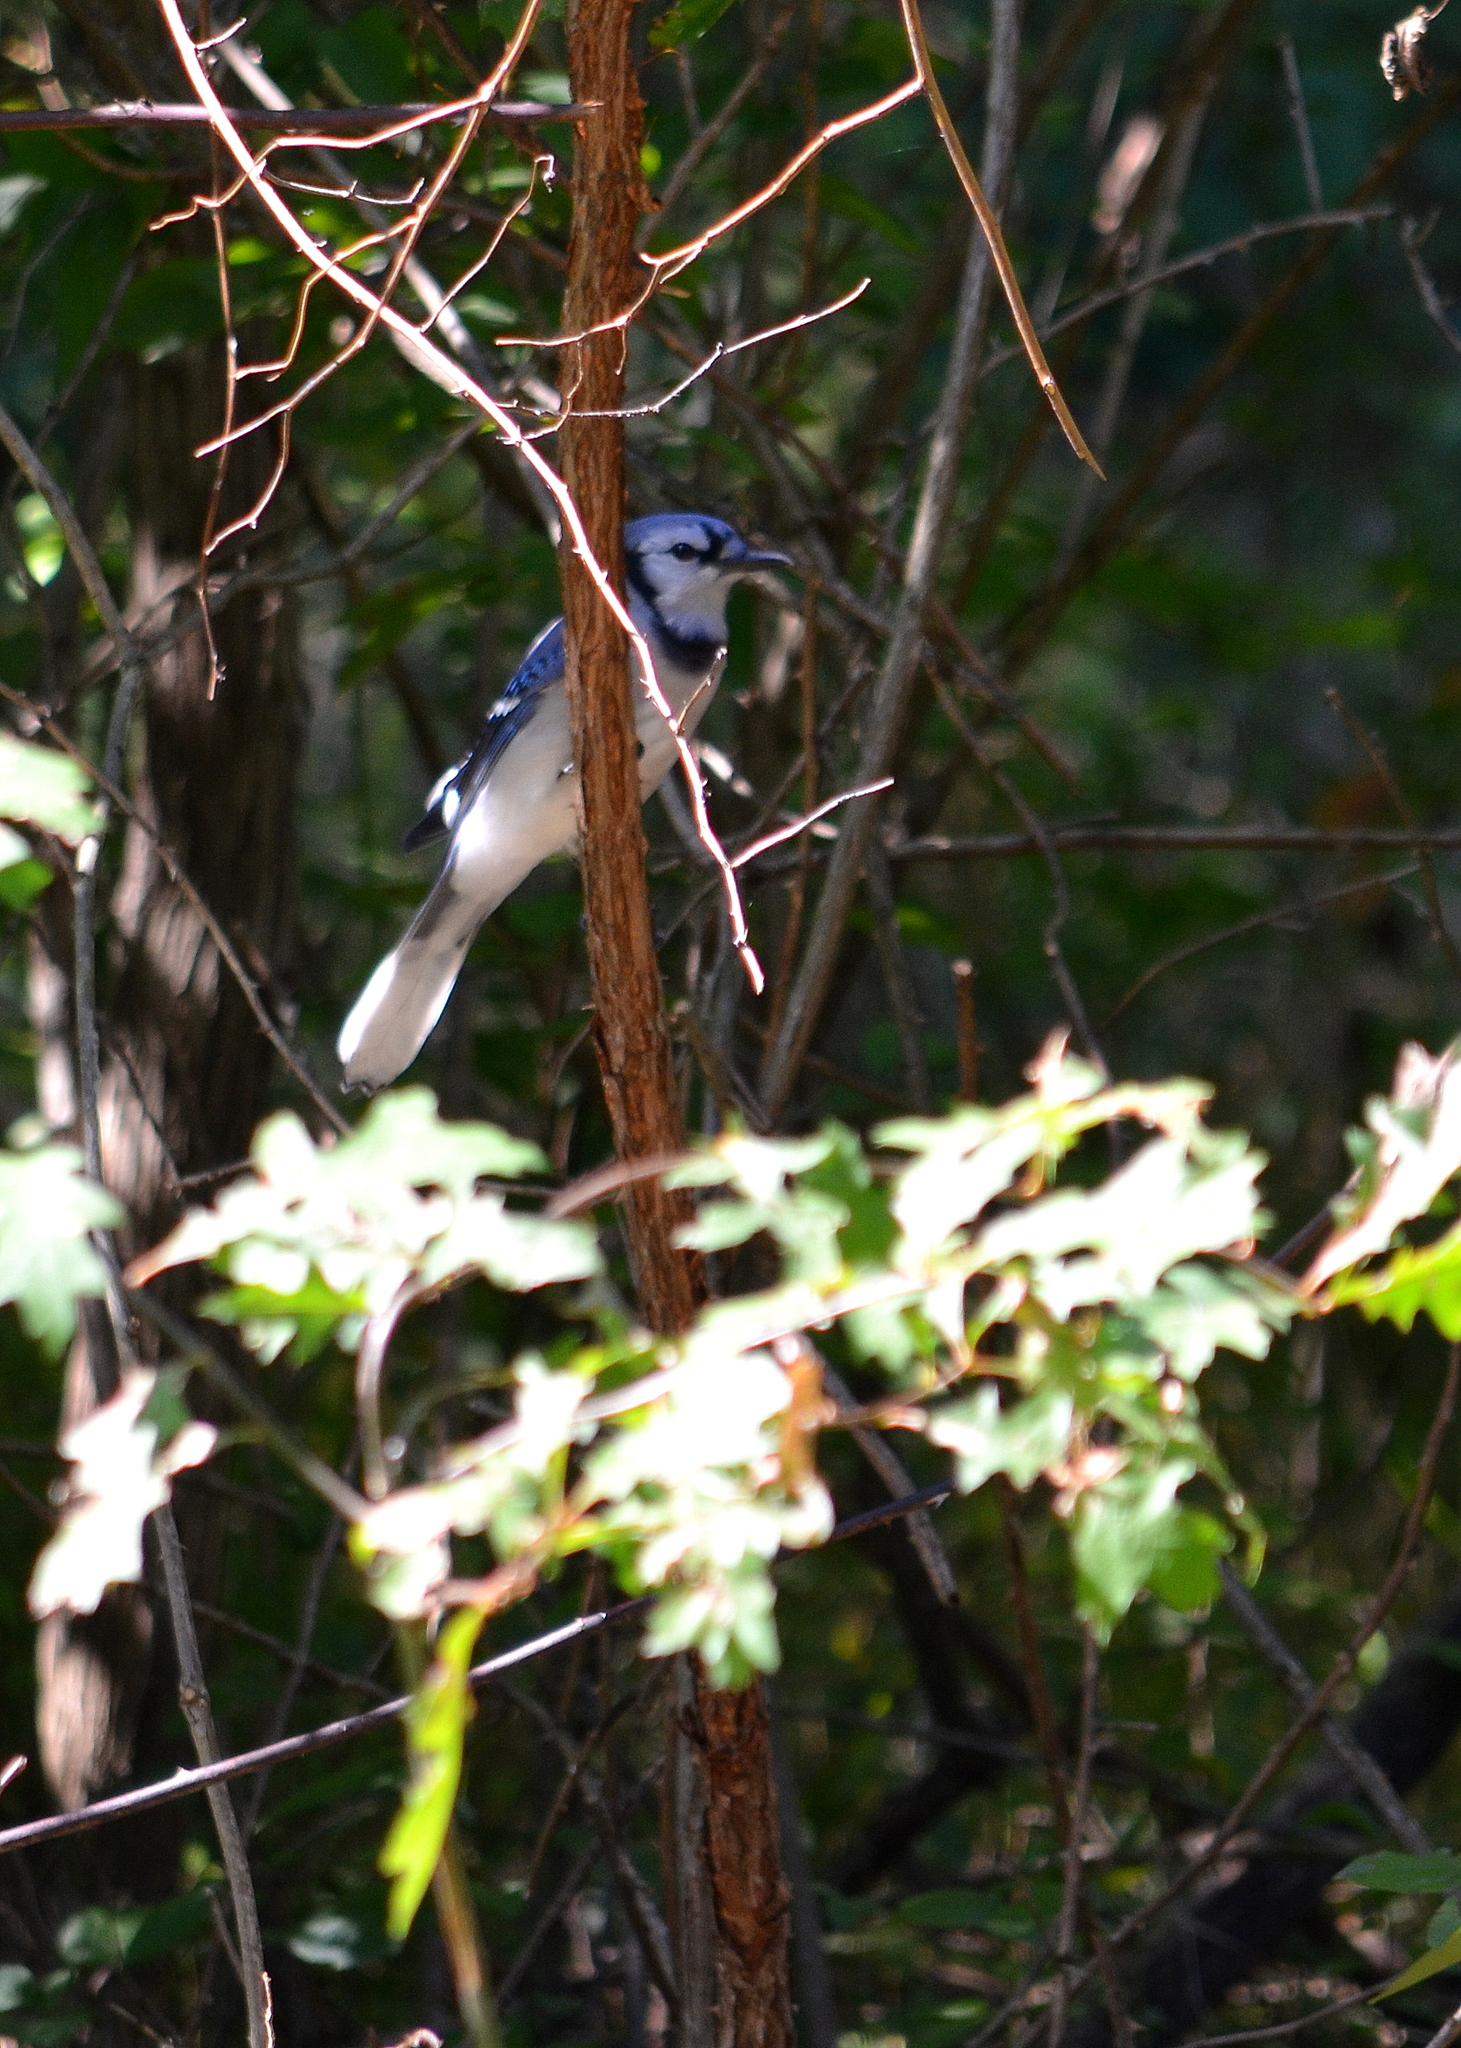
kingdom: Animalia
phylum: Chordata
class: Aves
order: Passeriformes
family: Corvidae
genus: Cyanocitta
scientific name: Cyanocitta cristata
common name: Blue jay
